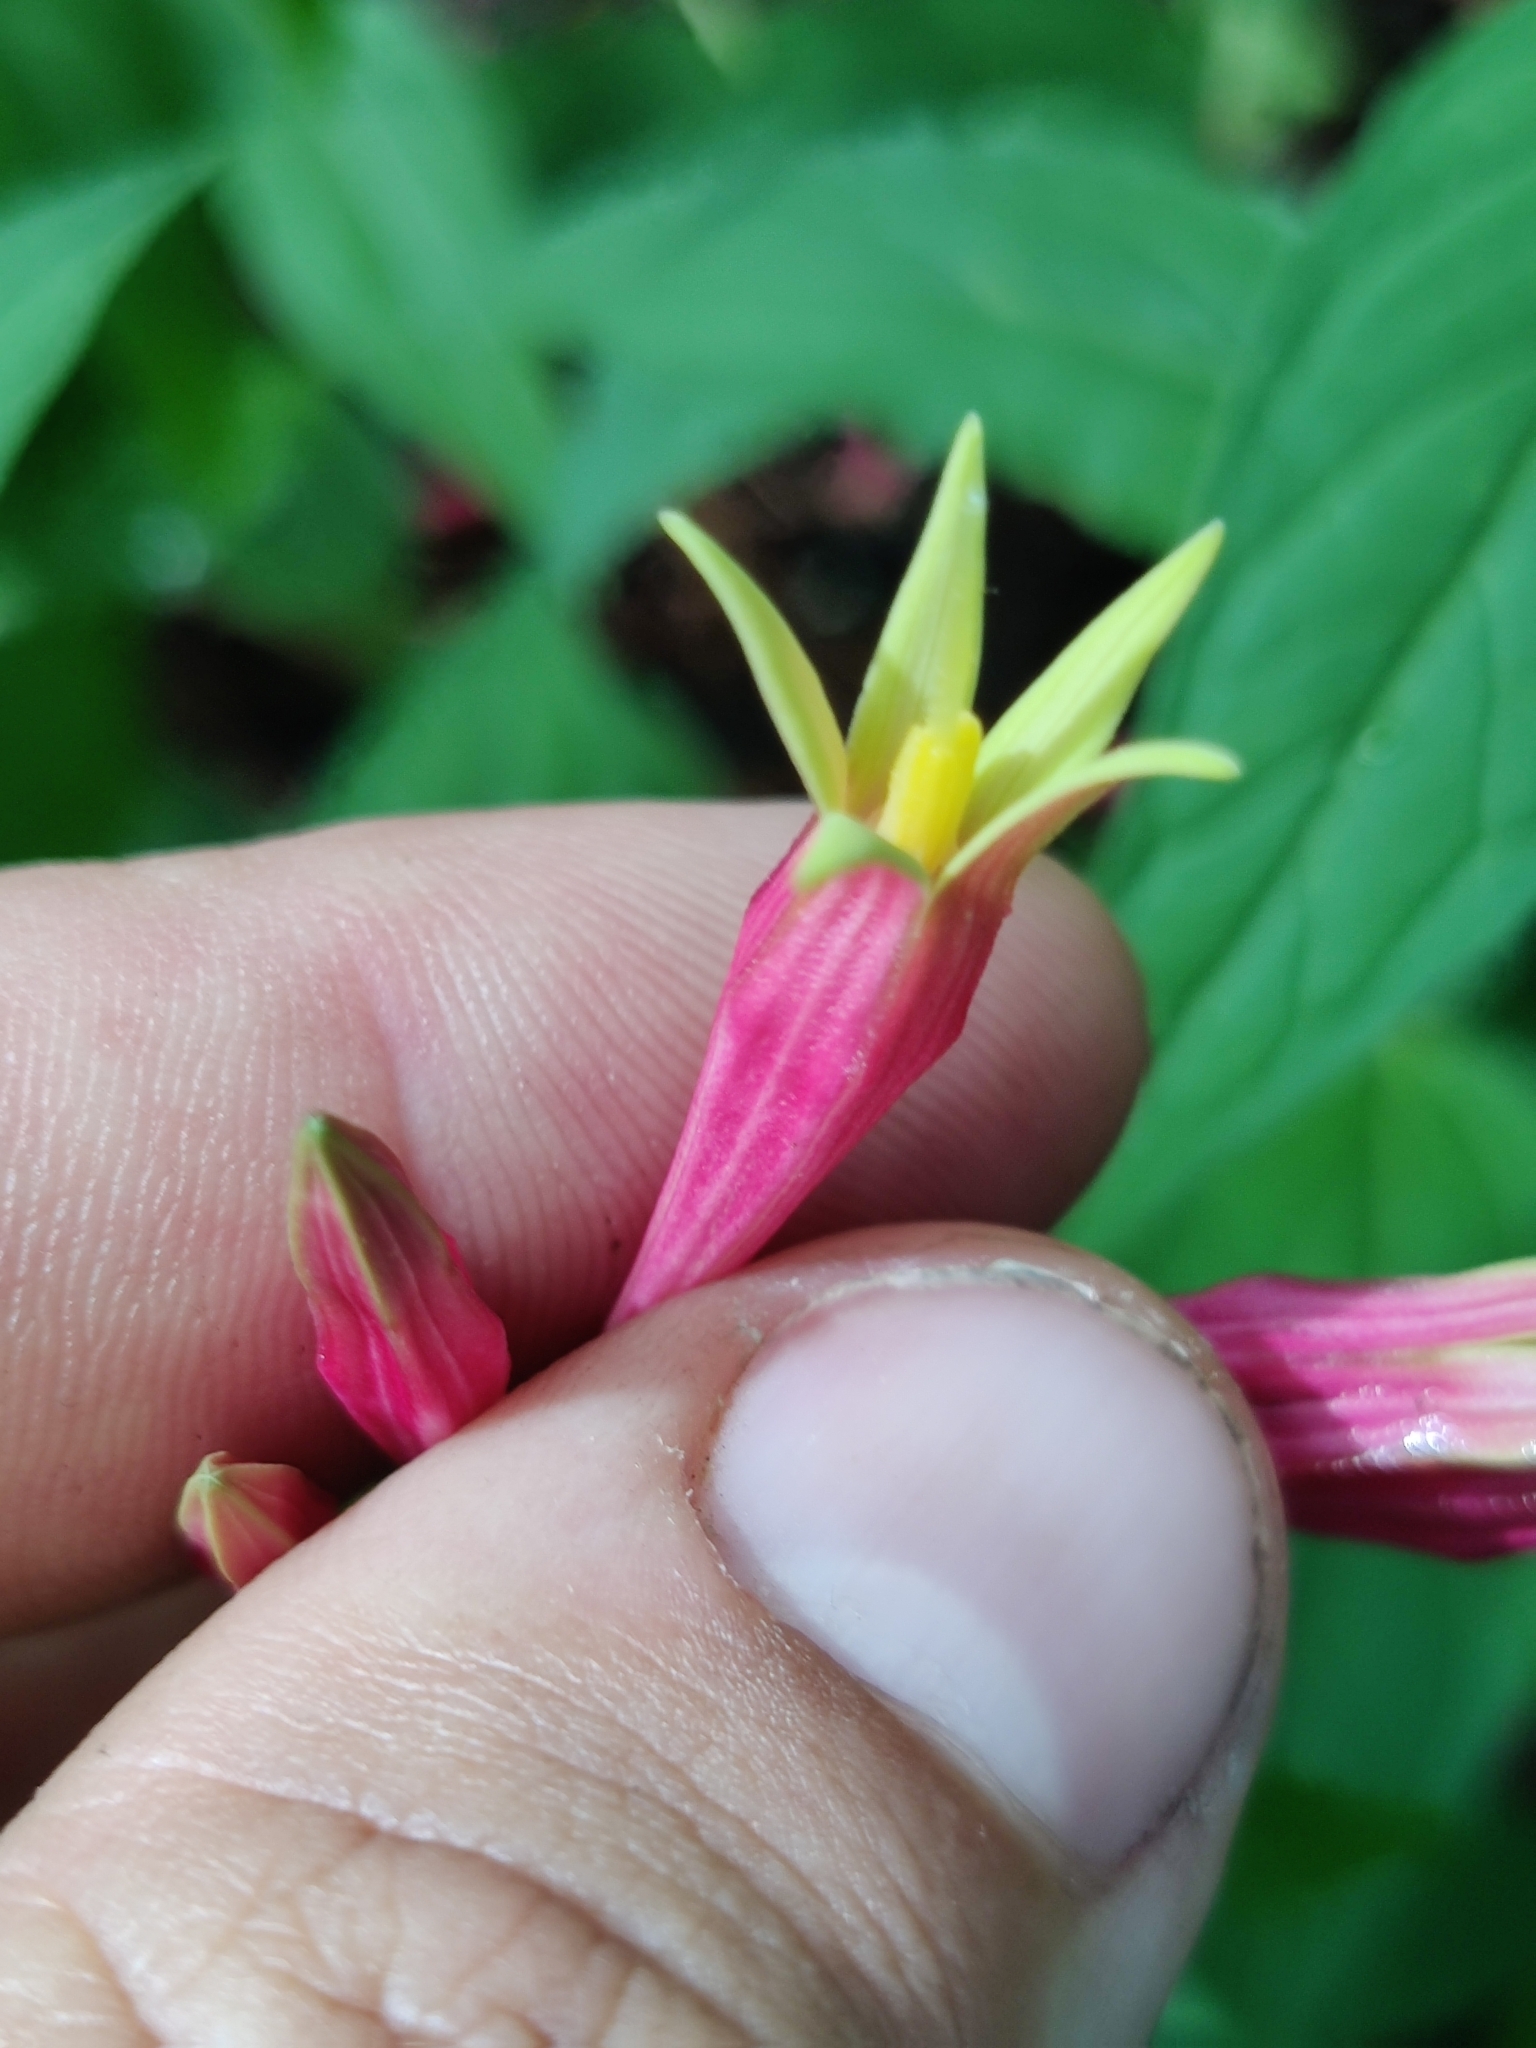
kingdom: Plantae
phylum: Tracheophyta
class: Magnoliopsida
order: Gentianales
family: Loganiaceae
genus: Spigelia
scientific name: Spigelia marilandica
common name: Indian-pink
